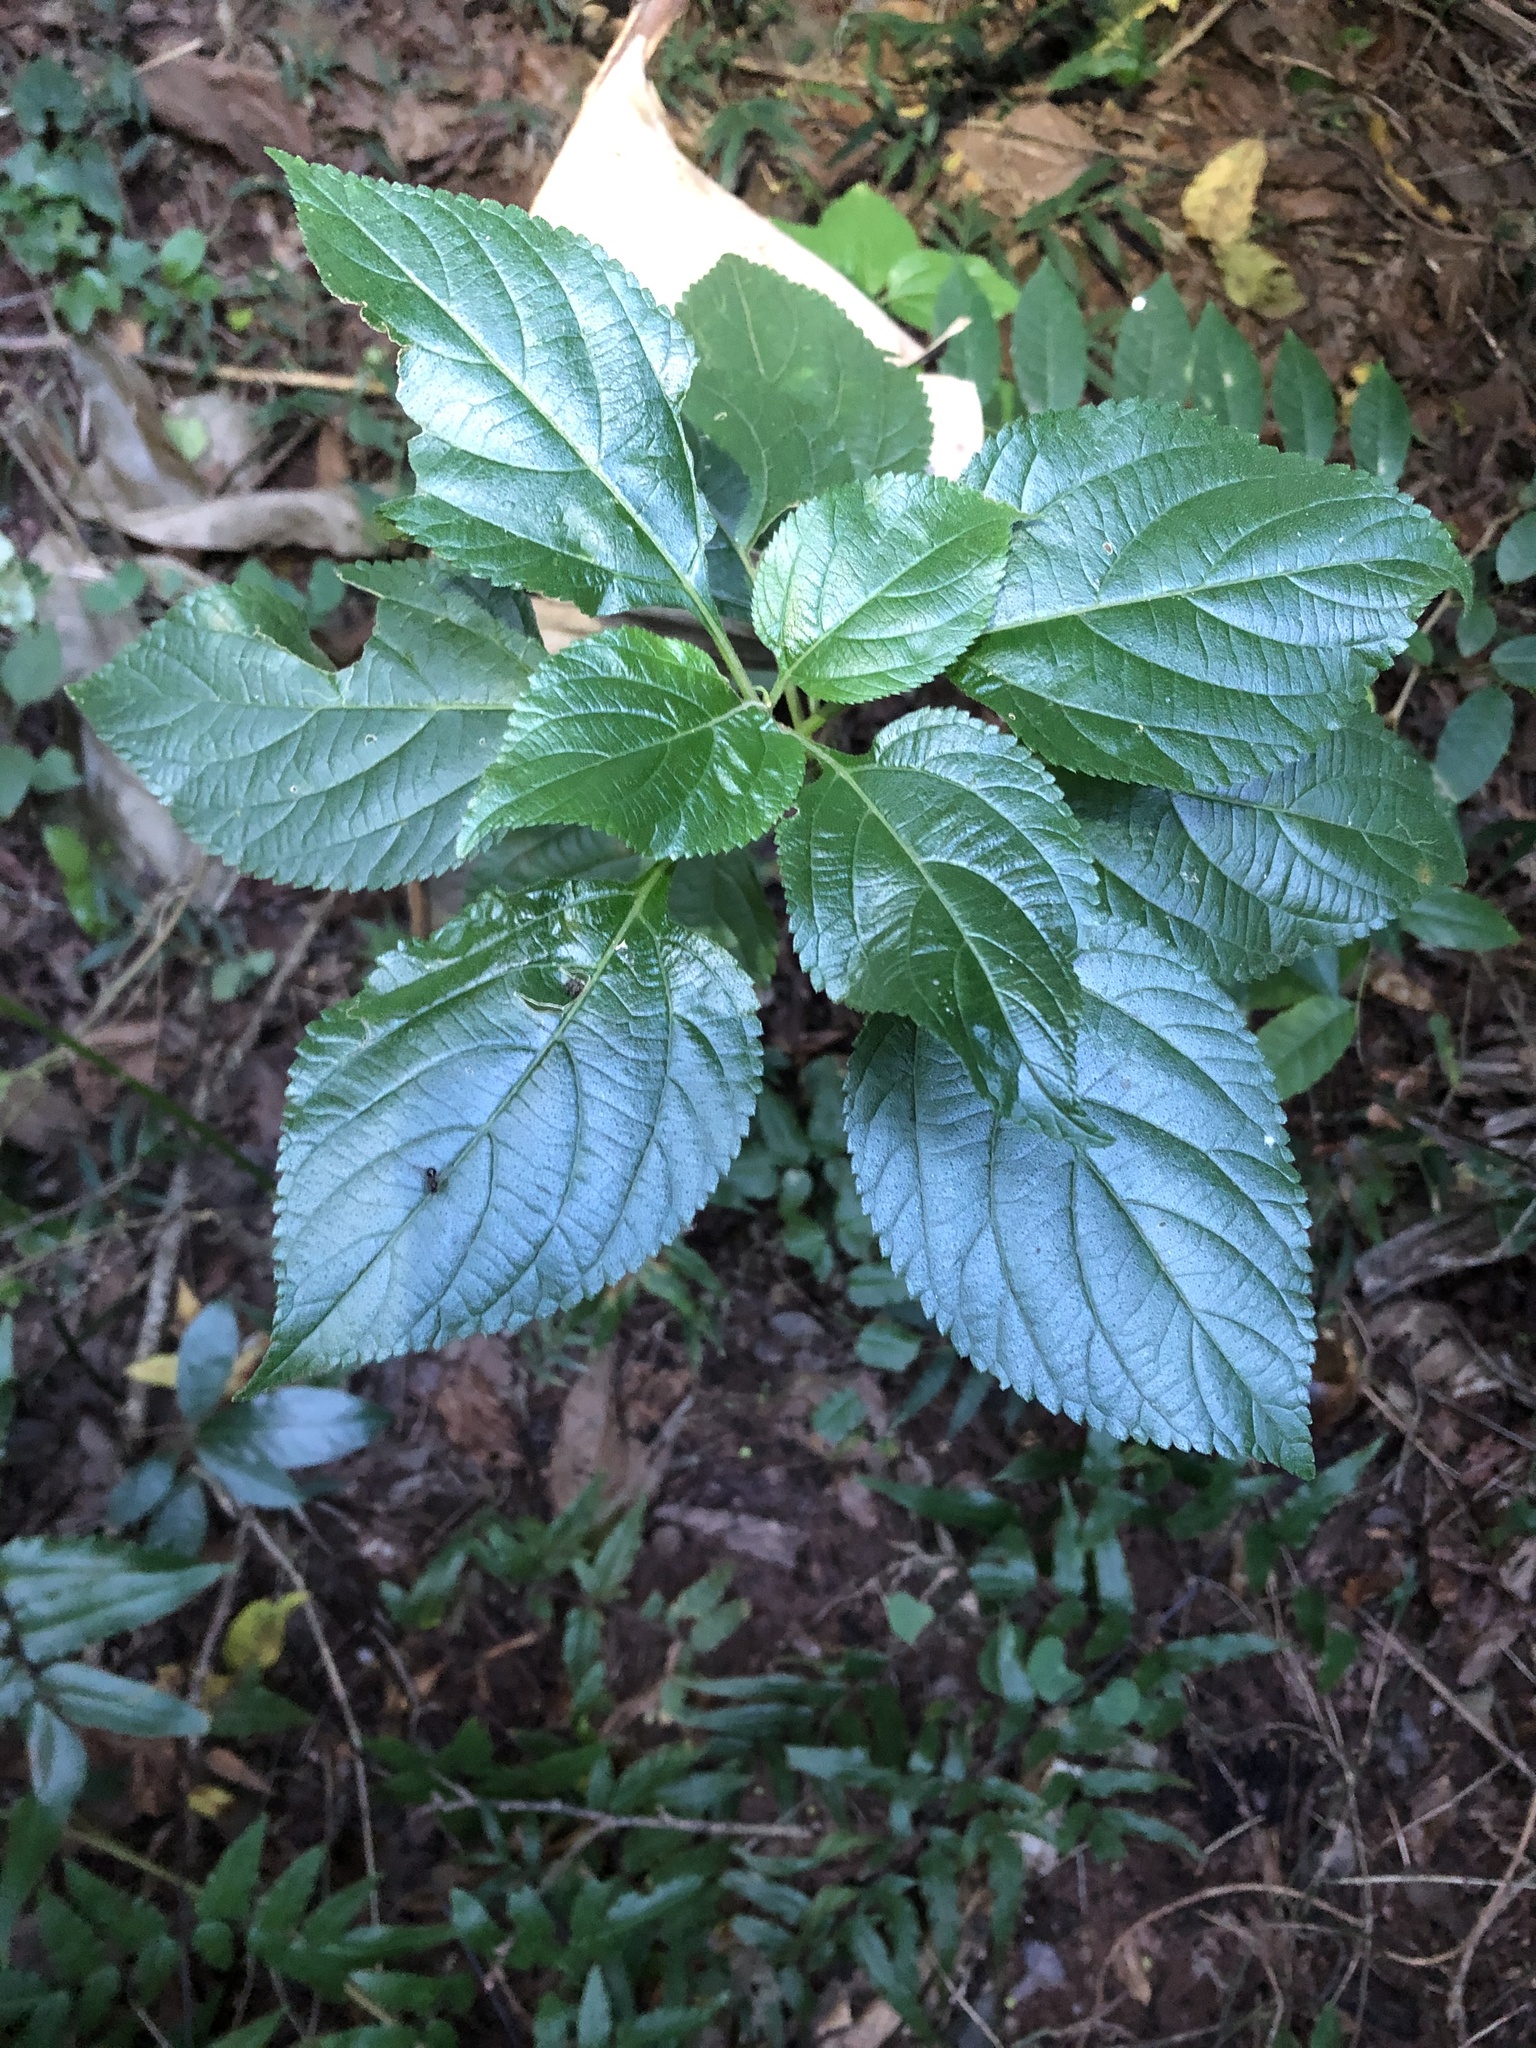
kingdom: Plantae
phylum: Tracheophyta
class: Magnoliopsida
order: Lamiales
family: Verbenaceae
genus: Lantana
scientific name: Lantana camara
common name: Lantana
